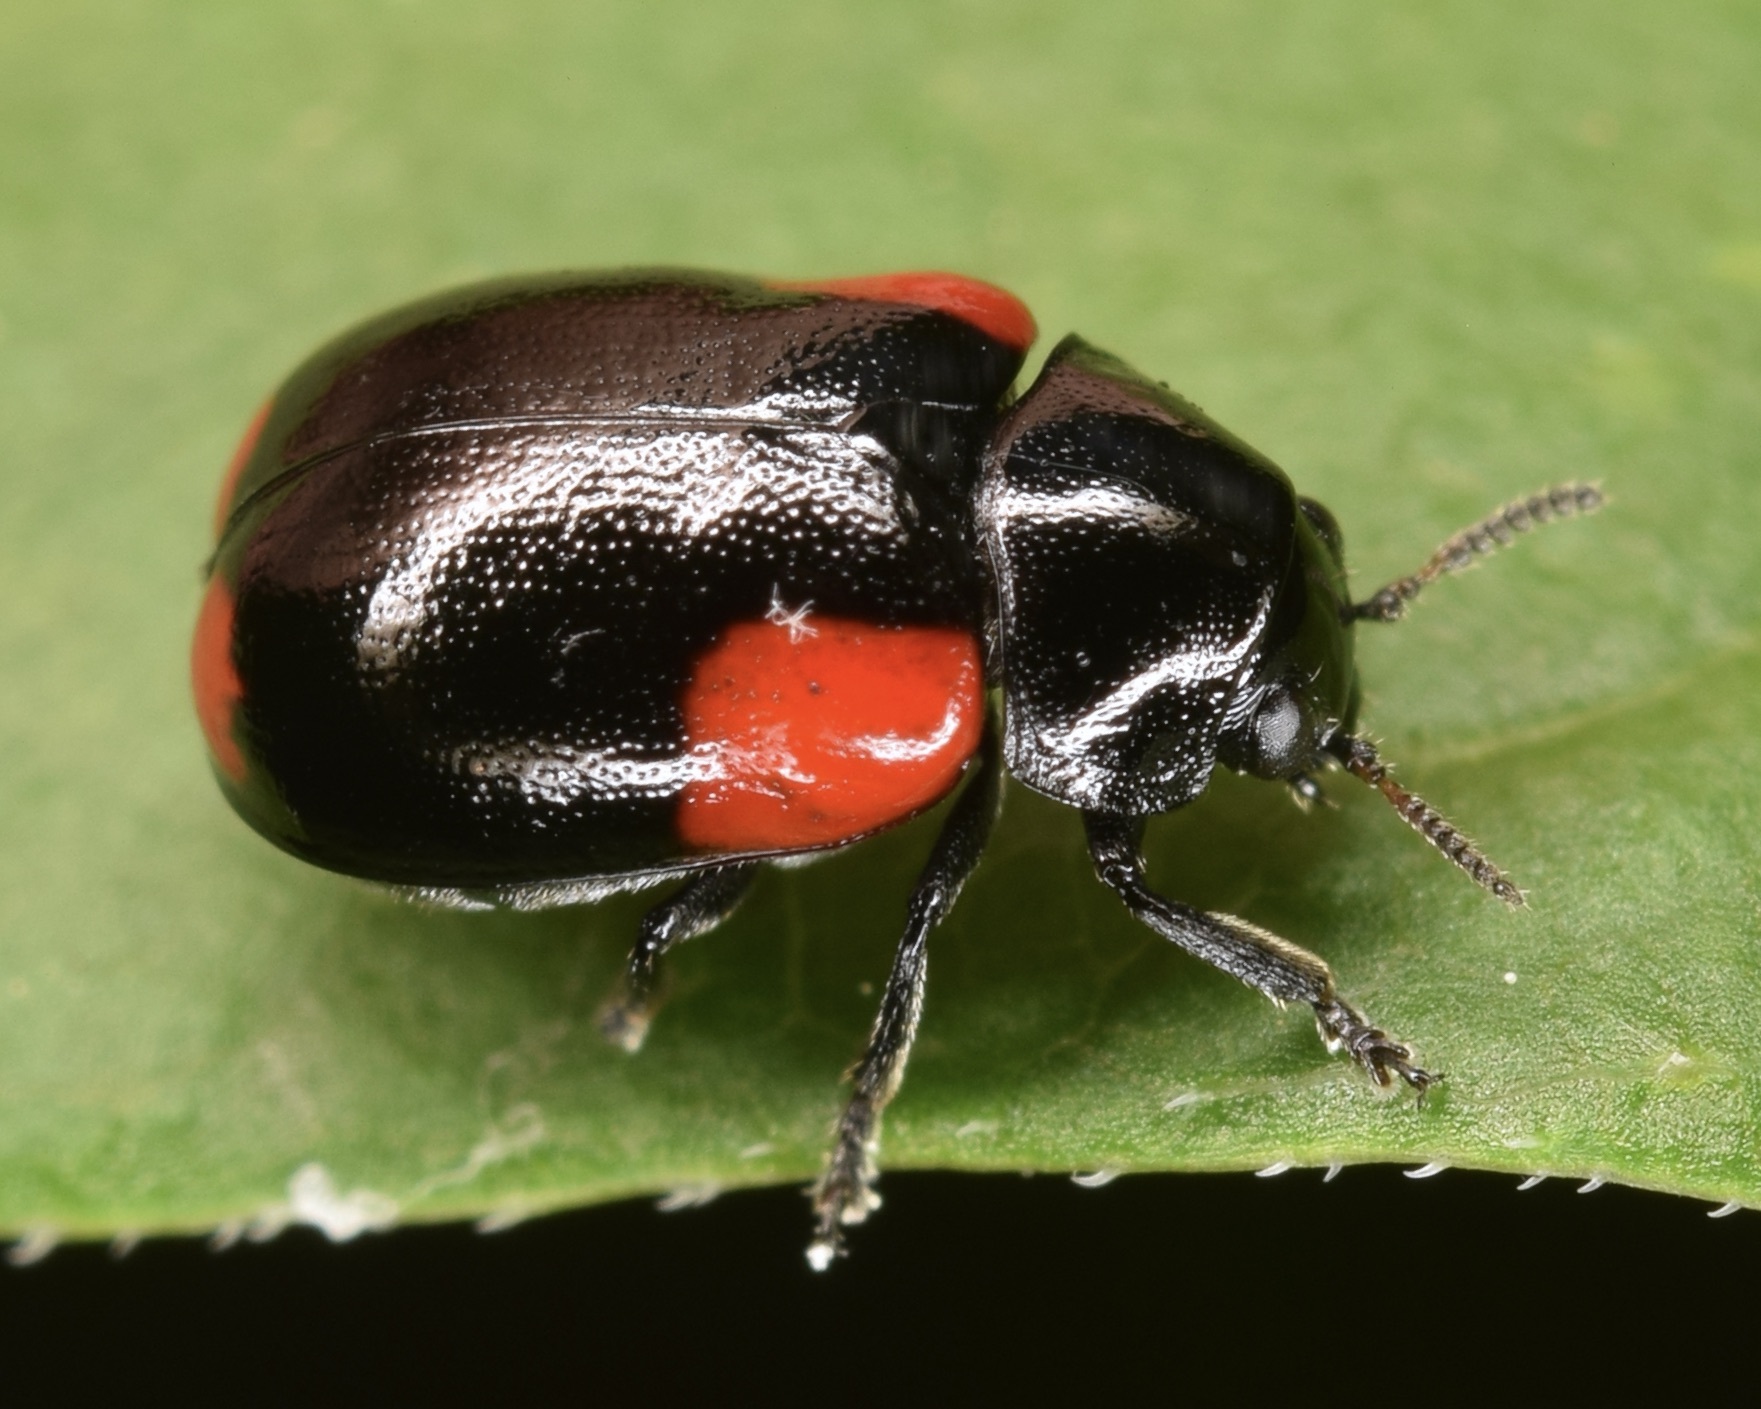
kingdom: Animalia
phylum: Arthropoda
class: Insecta
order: Coleoptera
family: Chrysomelidae
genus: Babia
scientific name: Babia quadriguttata
